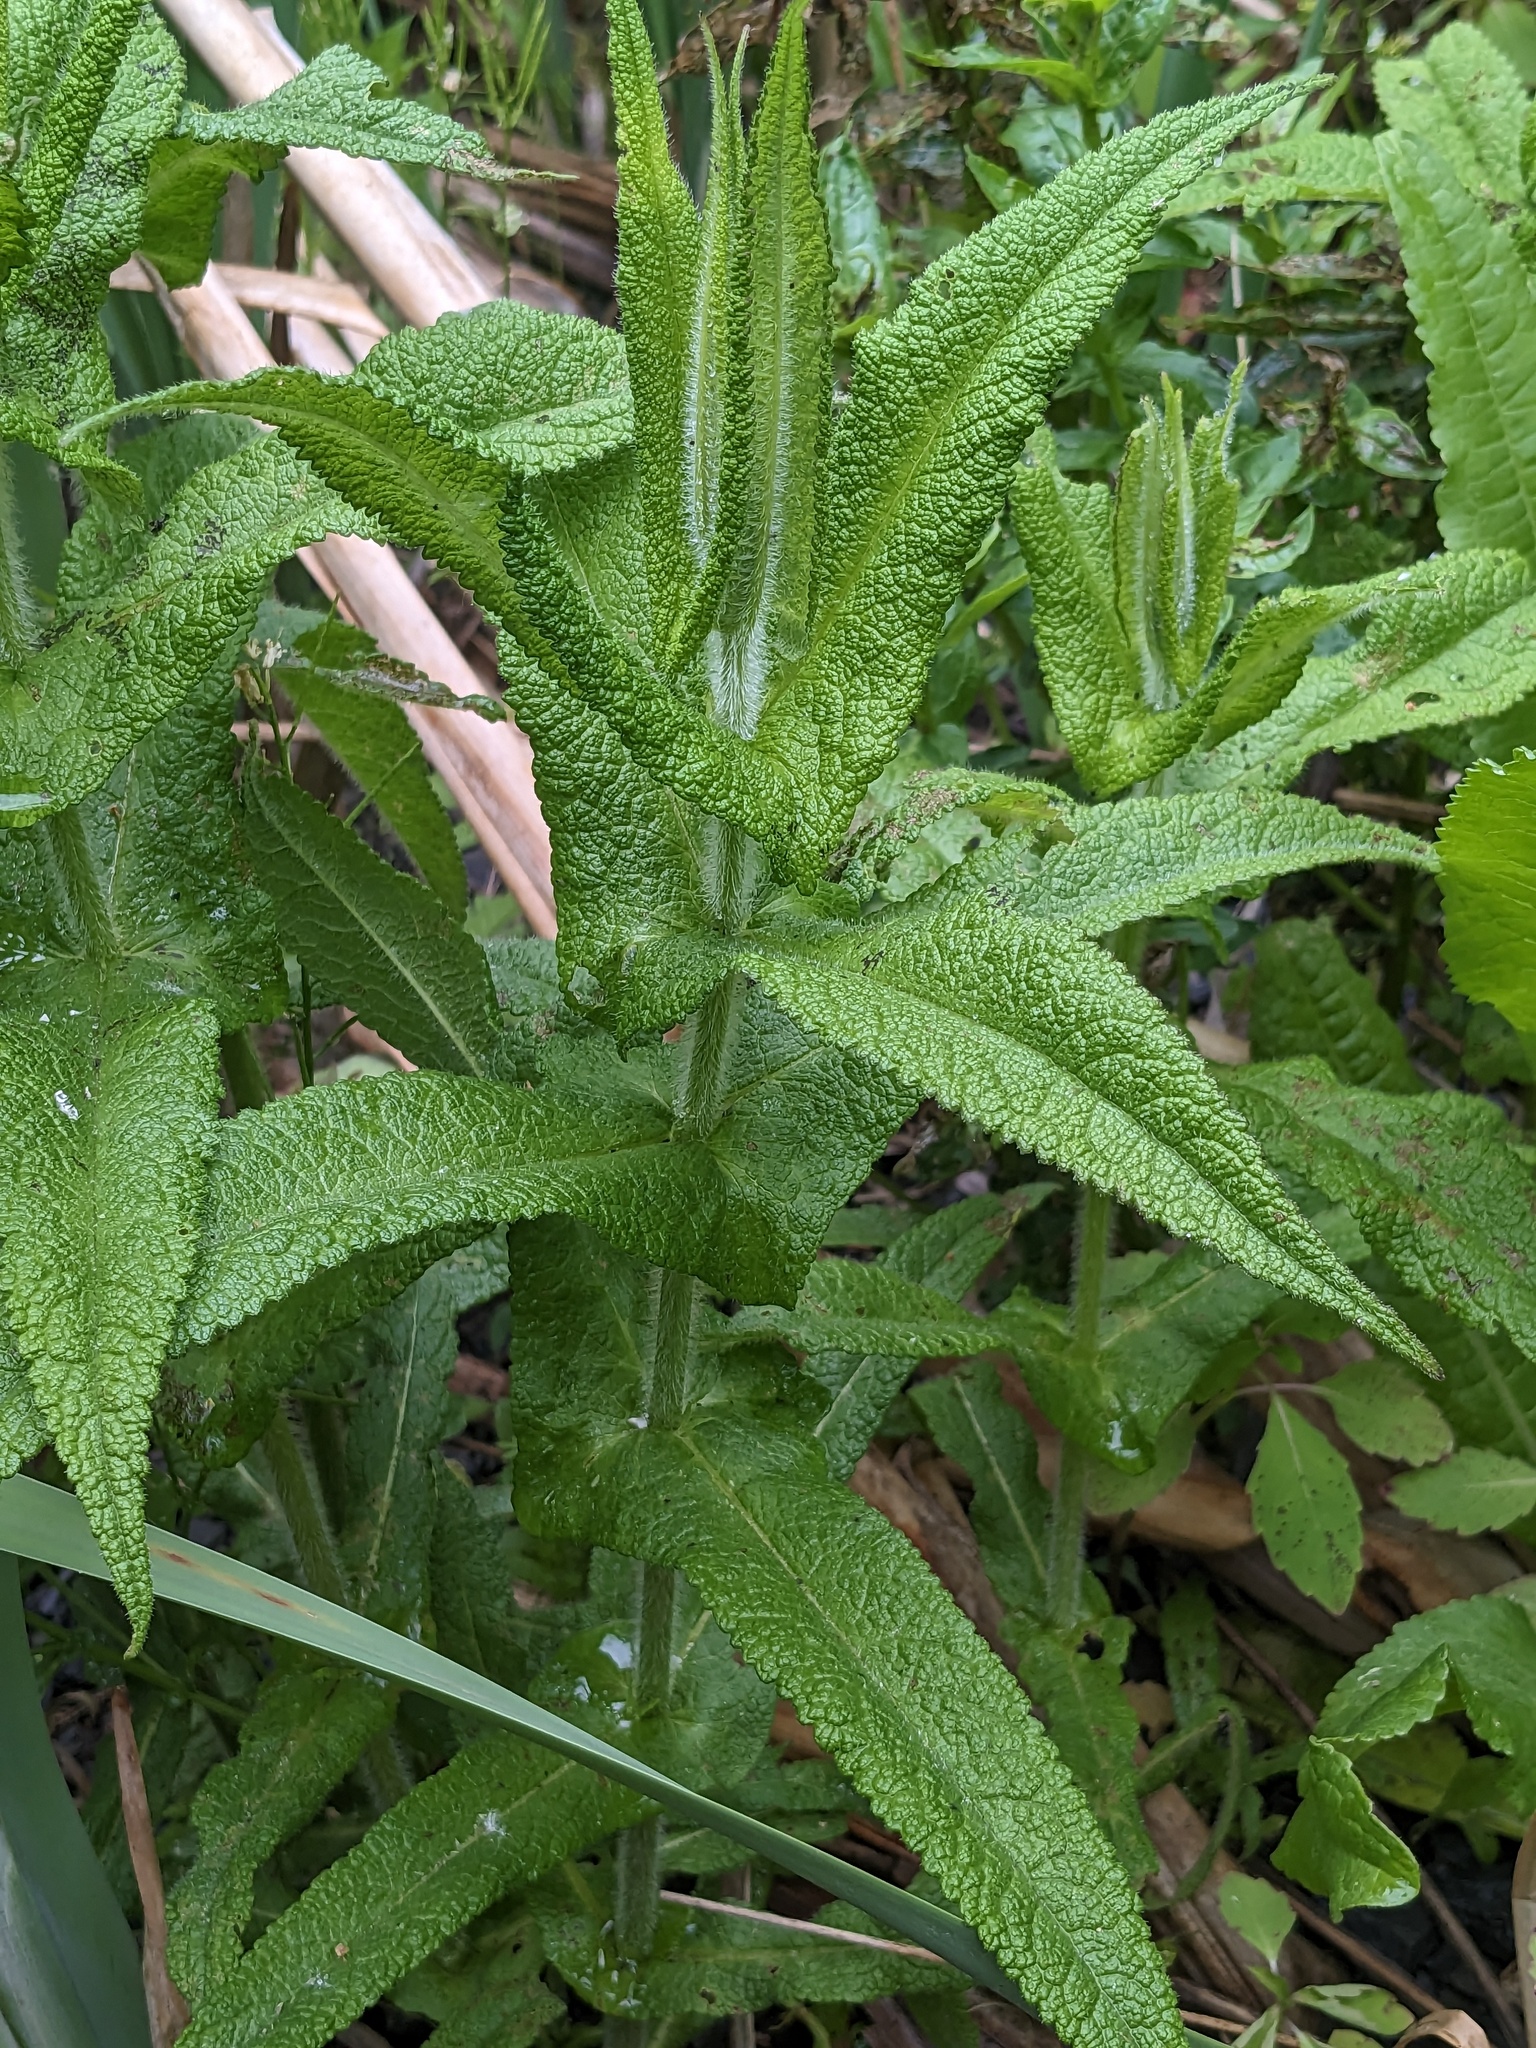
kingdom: Plantae
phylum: Tracheophyta
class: Magnoliopsida
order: Asterales
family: Asteraceae
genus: Eupatorium
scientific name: Eupatorium perfoliatum
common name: Boneset
